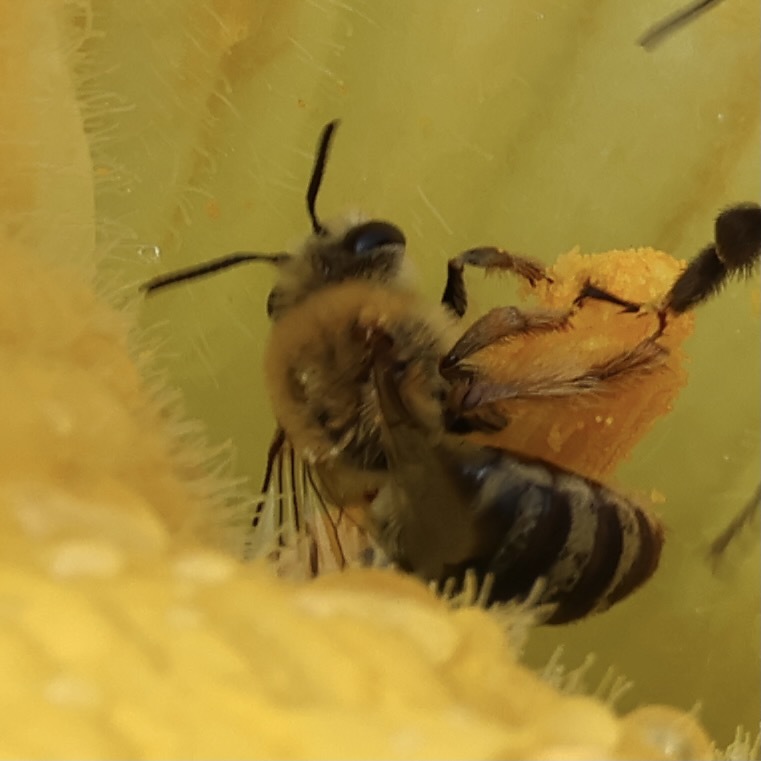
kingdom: Animalia
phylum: Arthropoda
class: Insecta
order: Hymenoptera
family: Apidae
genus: Peponapis
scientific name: Peponapis pruinosa
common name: Pruinose squash bee
